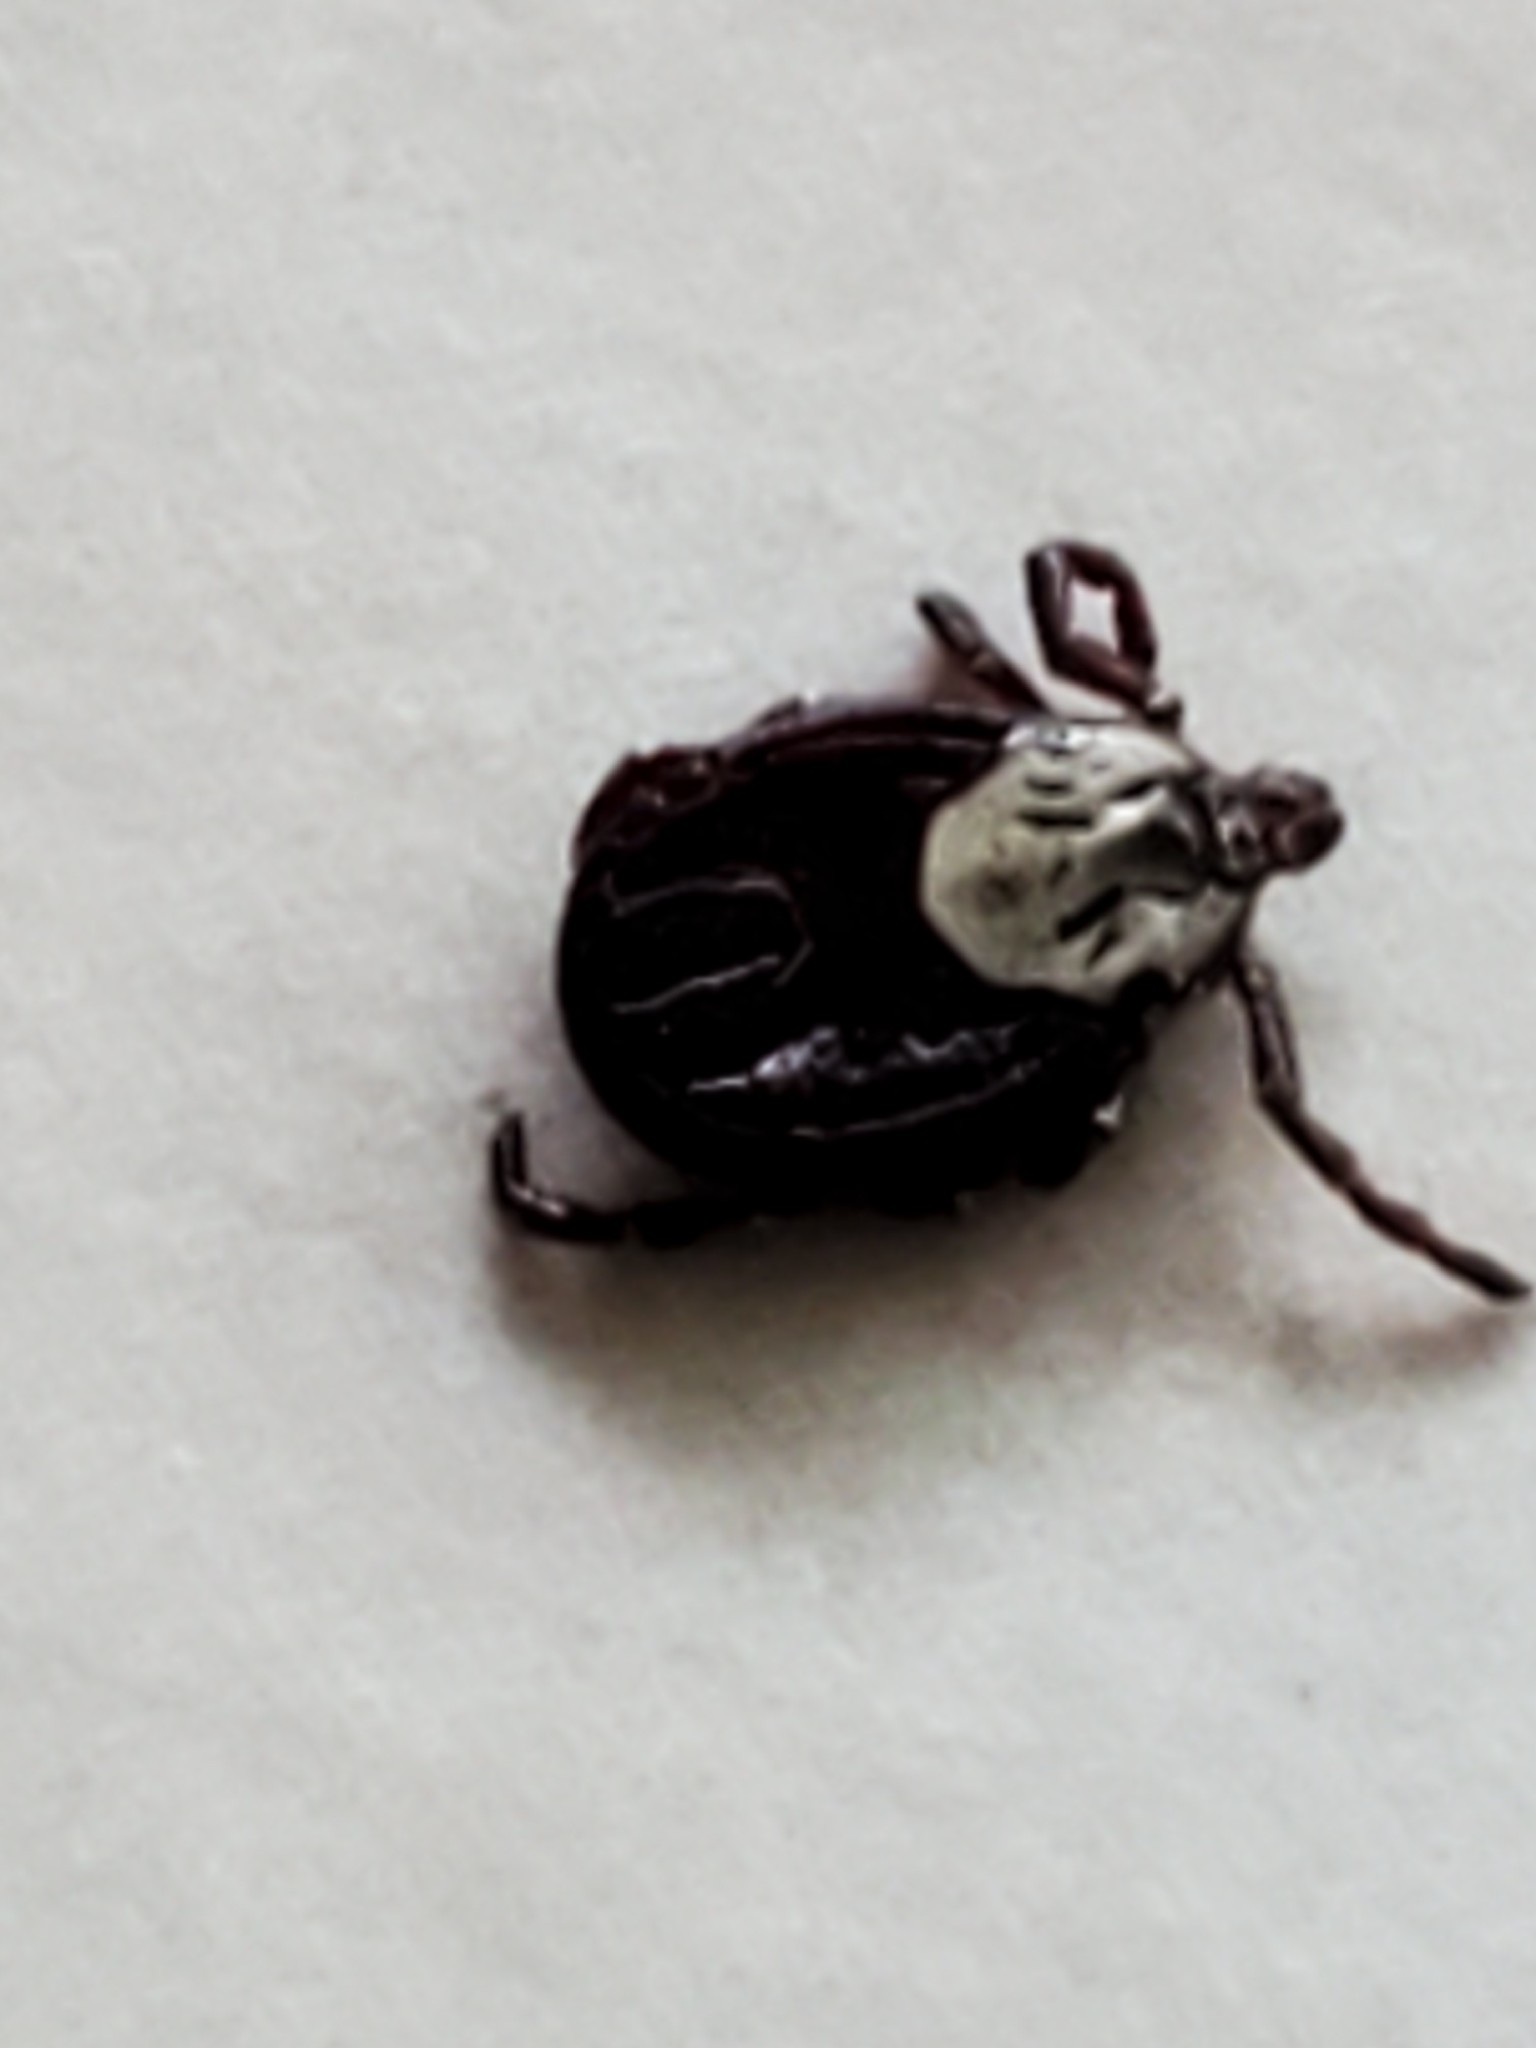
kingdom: Animalia
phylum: Arthropoda
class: Arachnida
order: Ixodida
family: Ixodidae
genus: Dermacentor
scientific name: Dermacentor variabilis
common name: American dog tick
